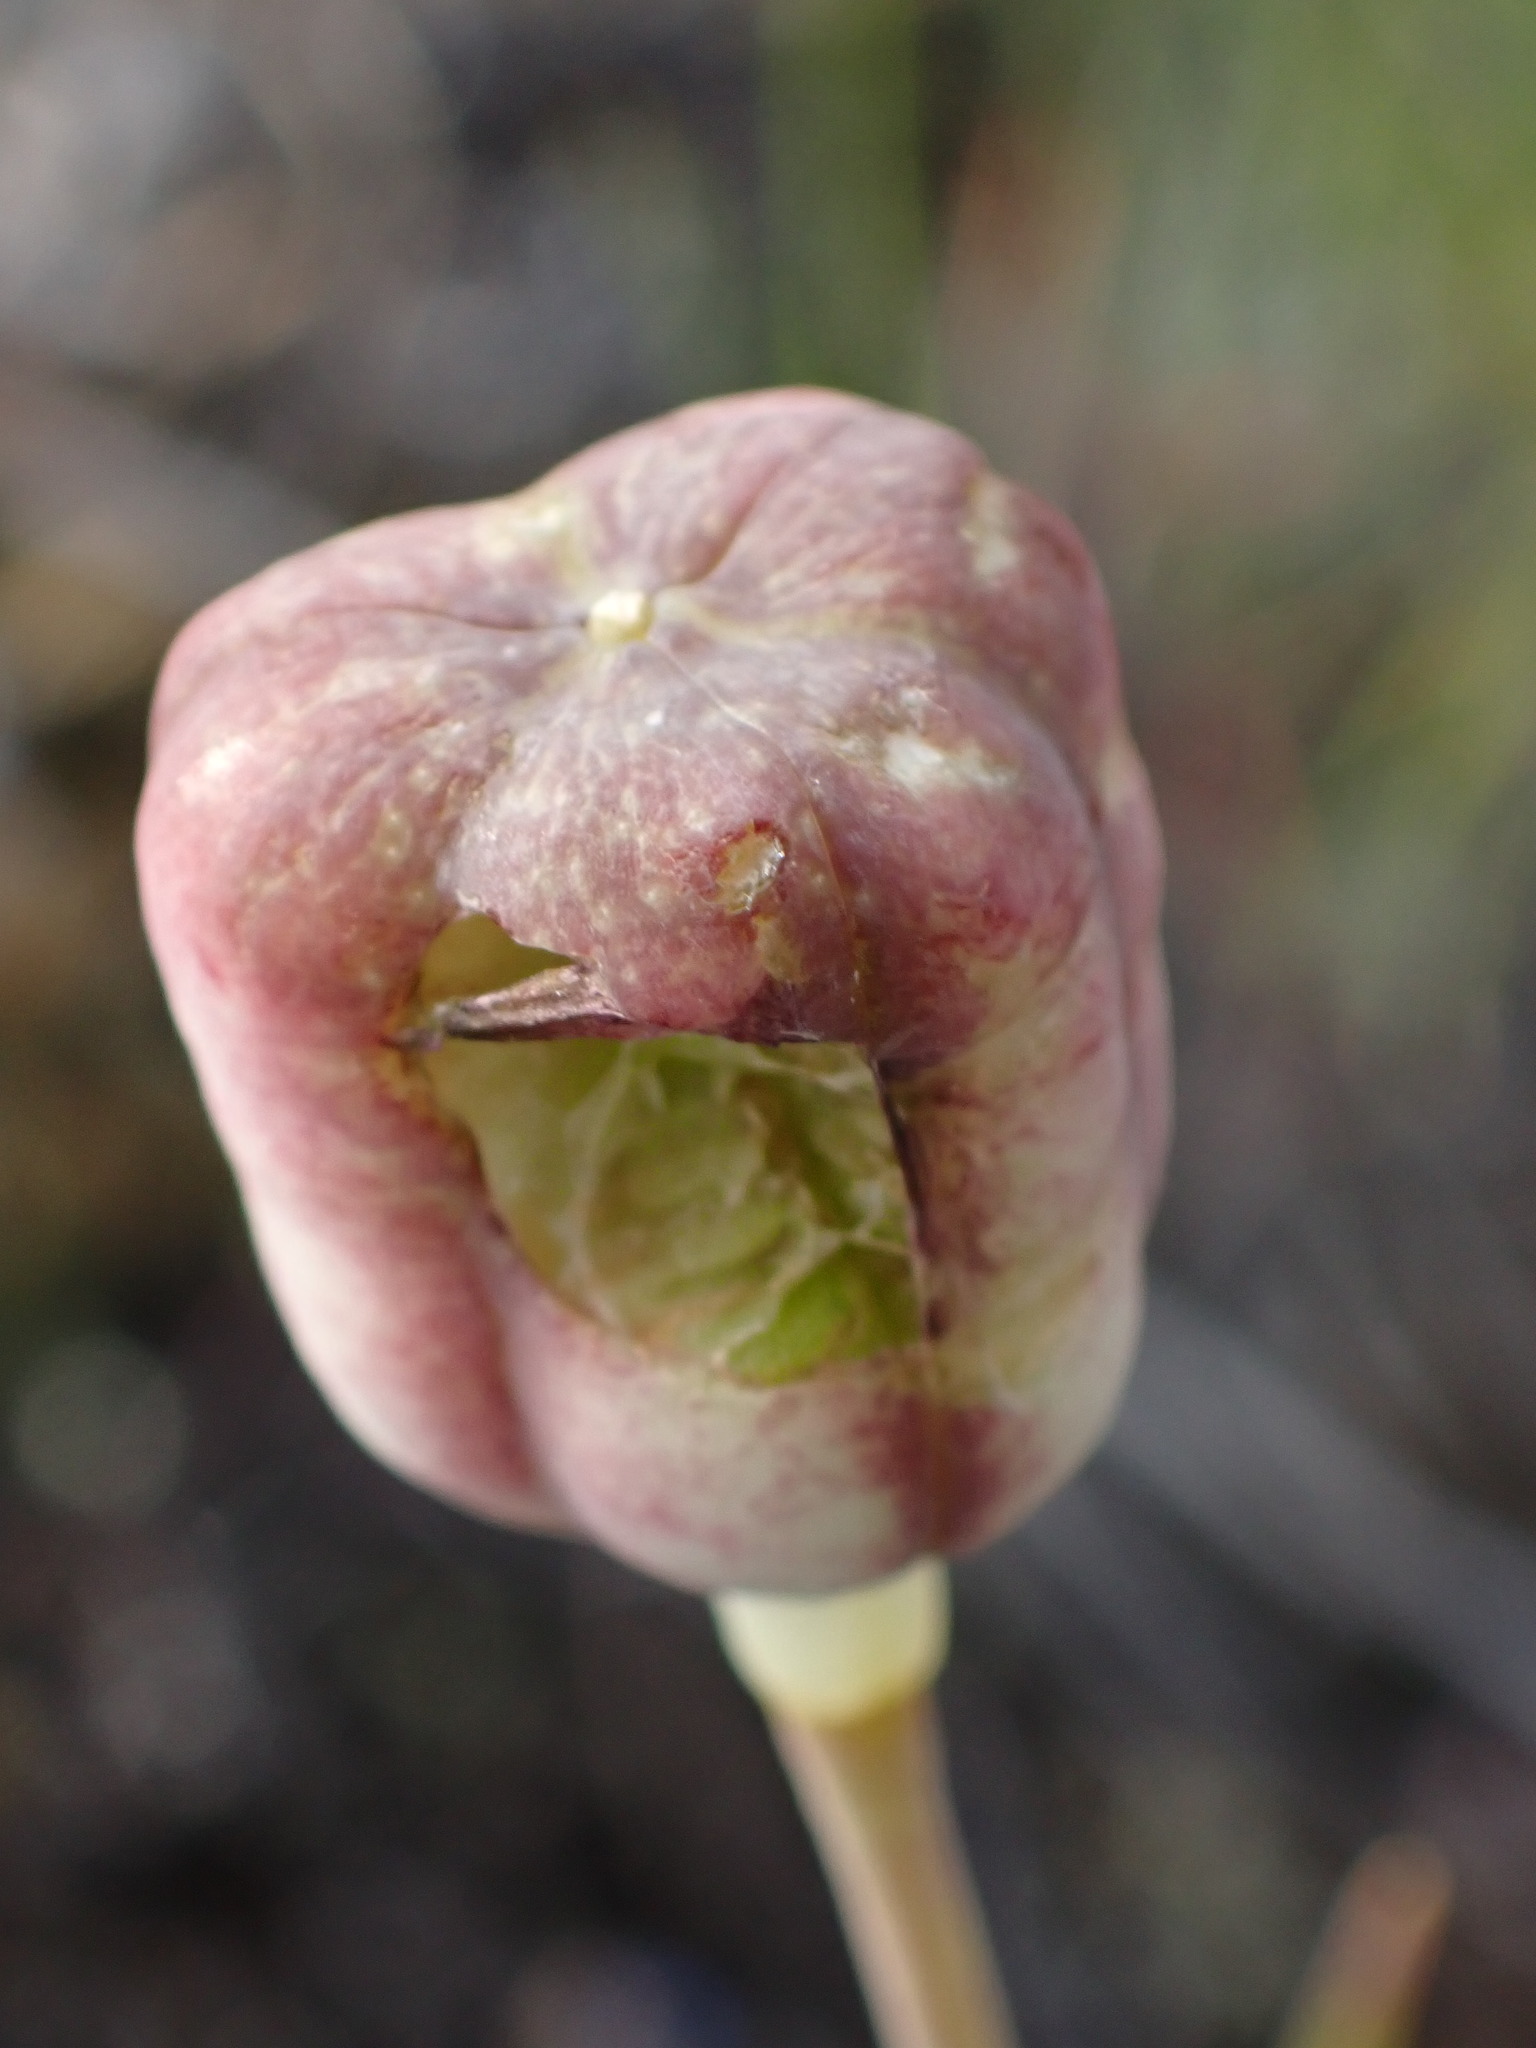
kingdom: Plantae
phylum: Tracheophyta
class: Liliopsida
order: Liliales
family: Liliaceae
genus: Fritillaria
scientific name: Fritillaria pudica
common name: Yellow fritillary
